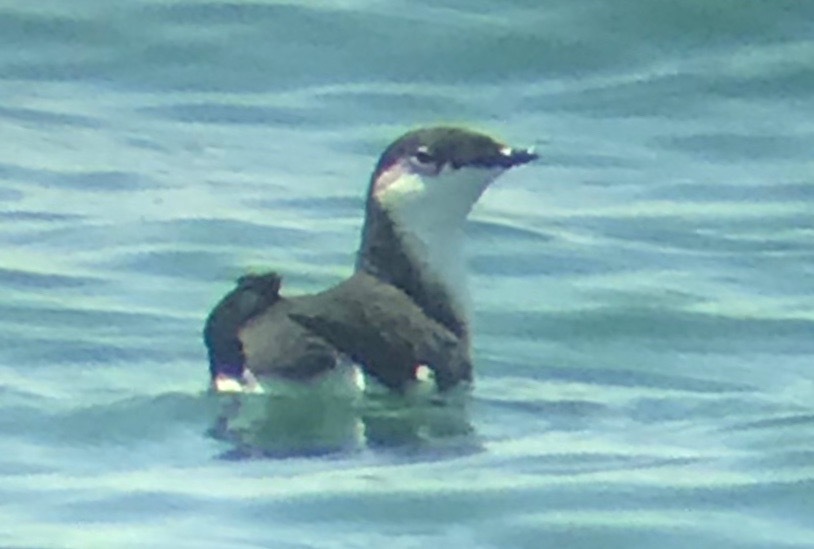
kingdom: Animalia
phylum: Chordata
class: Aves
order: Charadriiformes
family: Alcidae
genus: Synthliboramphus
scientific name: Synthliboramphus scrippsi
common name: Scripps's murrelet
